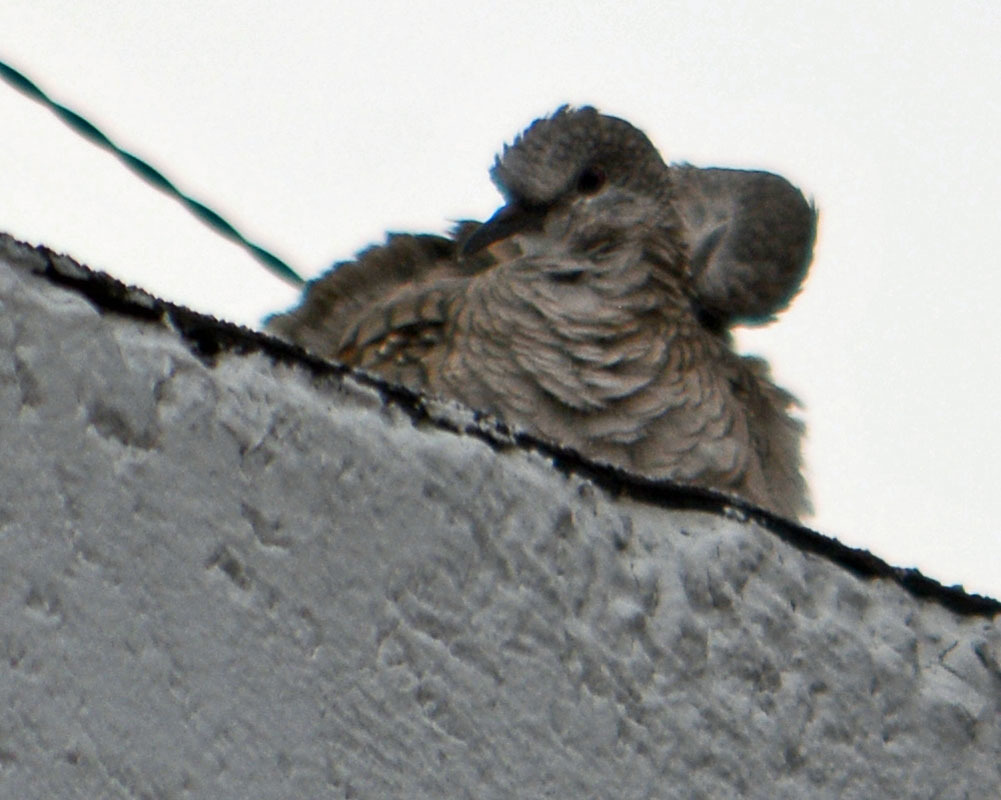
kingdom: Animalia
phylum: Chordata
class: Aves
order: Columbiformes
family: Columbidae
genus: Columbina
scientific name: Columbina inca
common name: Inca dove
